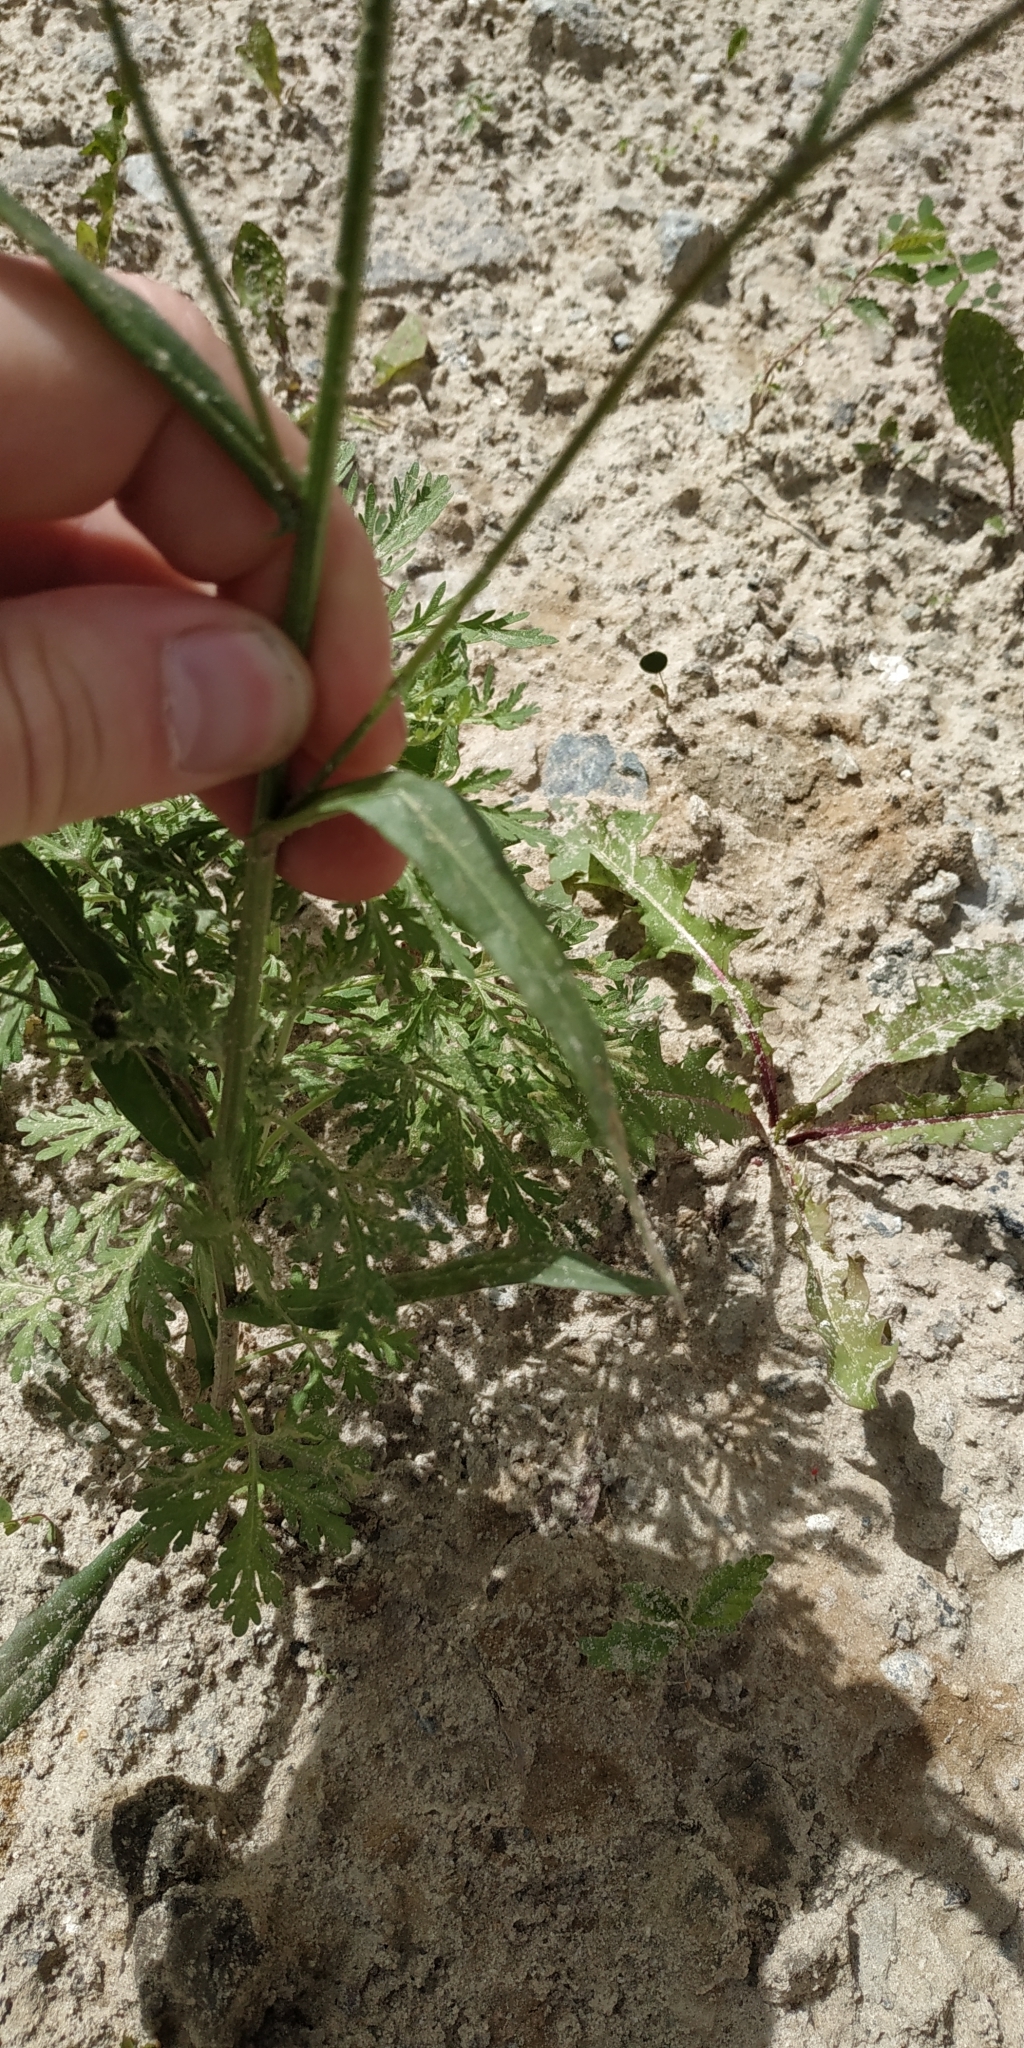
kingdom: Plantae
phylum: Tracheophyta
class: Magnoliopsida
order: Asterales
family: Asteraceae
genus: Crepis
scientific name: Crepis tectorum
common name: Narrow-leaved hawk's-beard
